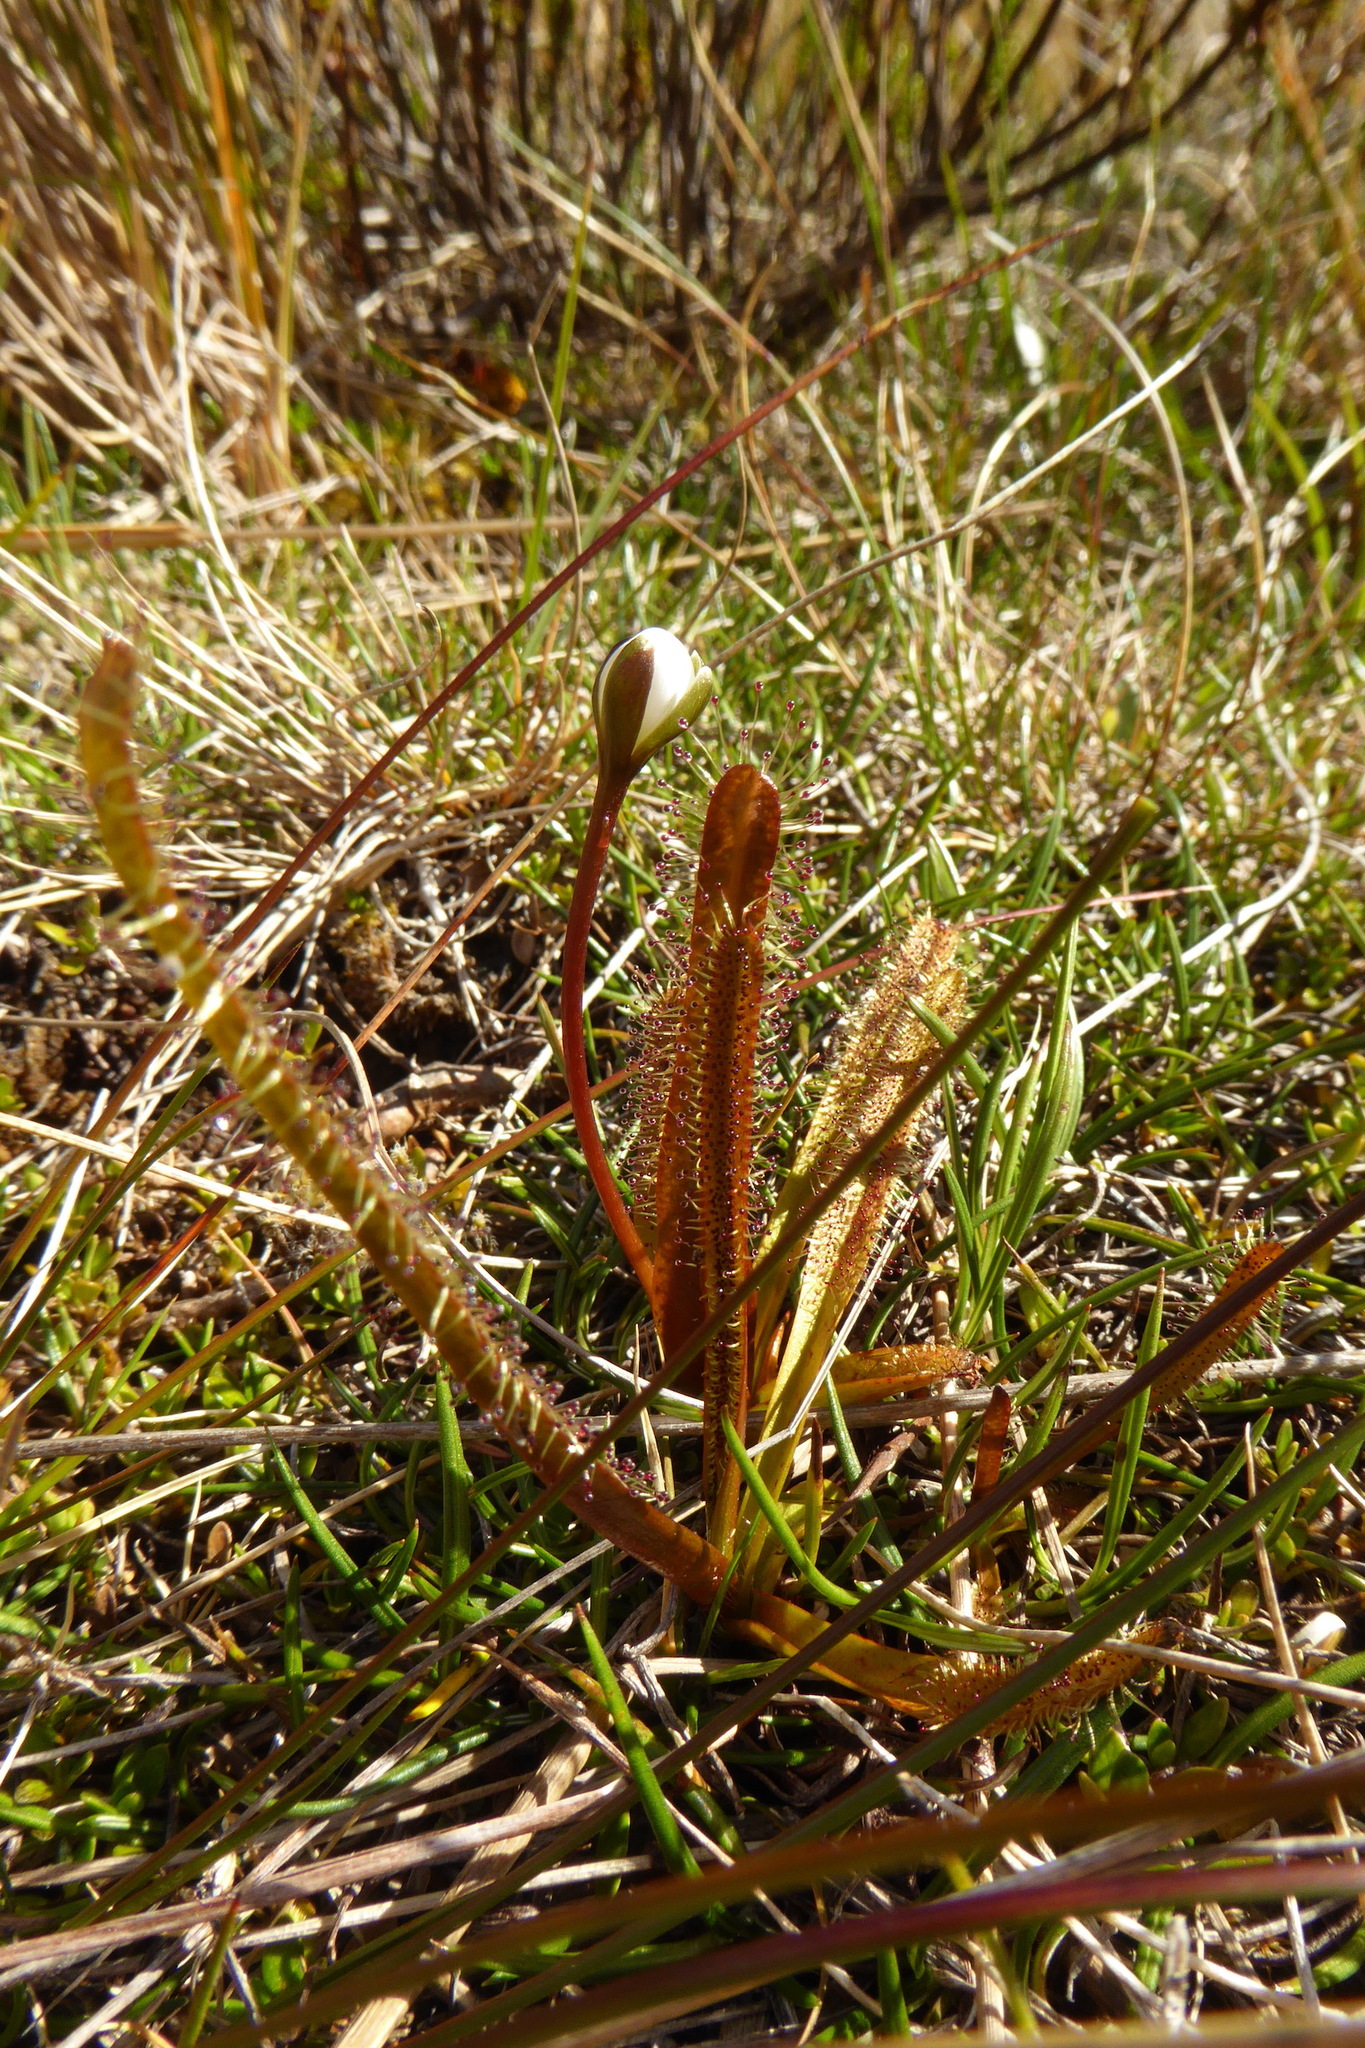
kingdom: Plantae
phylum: Tracheophyta
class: Magnoliopsida
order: Caryophyllales
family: Droseraceae
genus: Drosera
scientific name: Drosera arcturi
